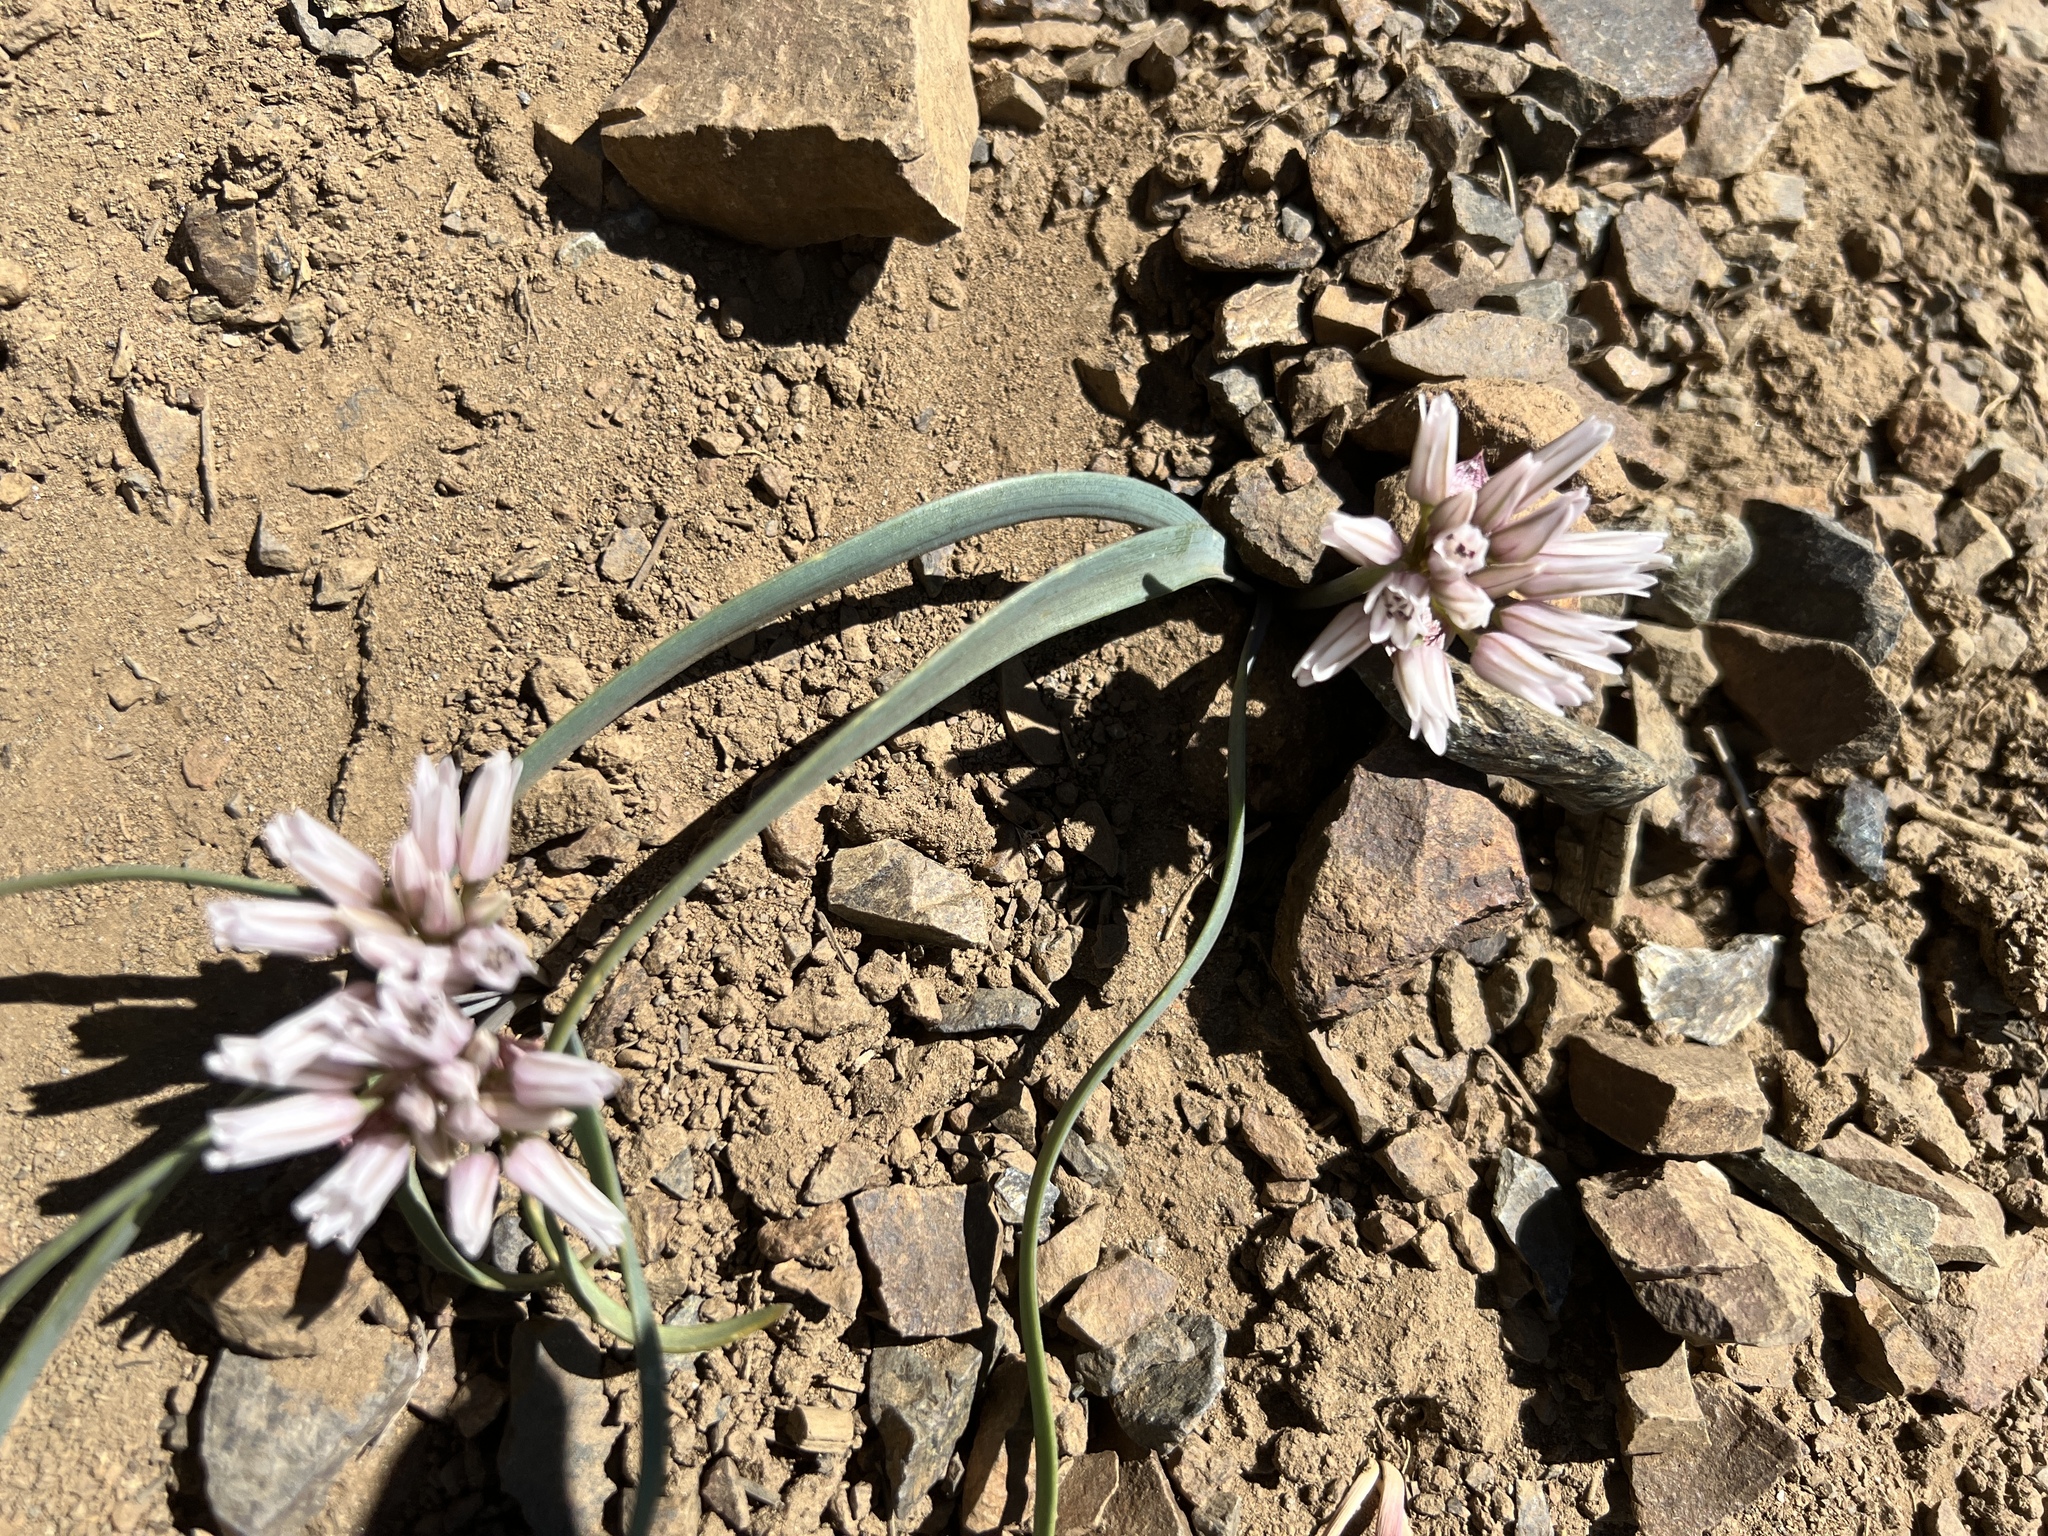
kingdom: Plantae
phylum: Tracheophyta
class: Liliopsida
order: Asparagales
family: Amaryllidaceae
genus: Allium
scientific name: Allium crenulatum
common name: Olympic onion
